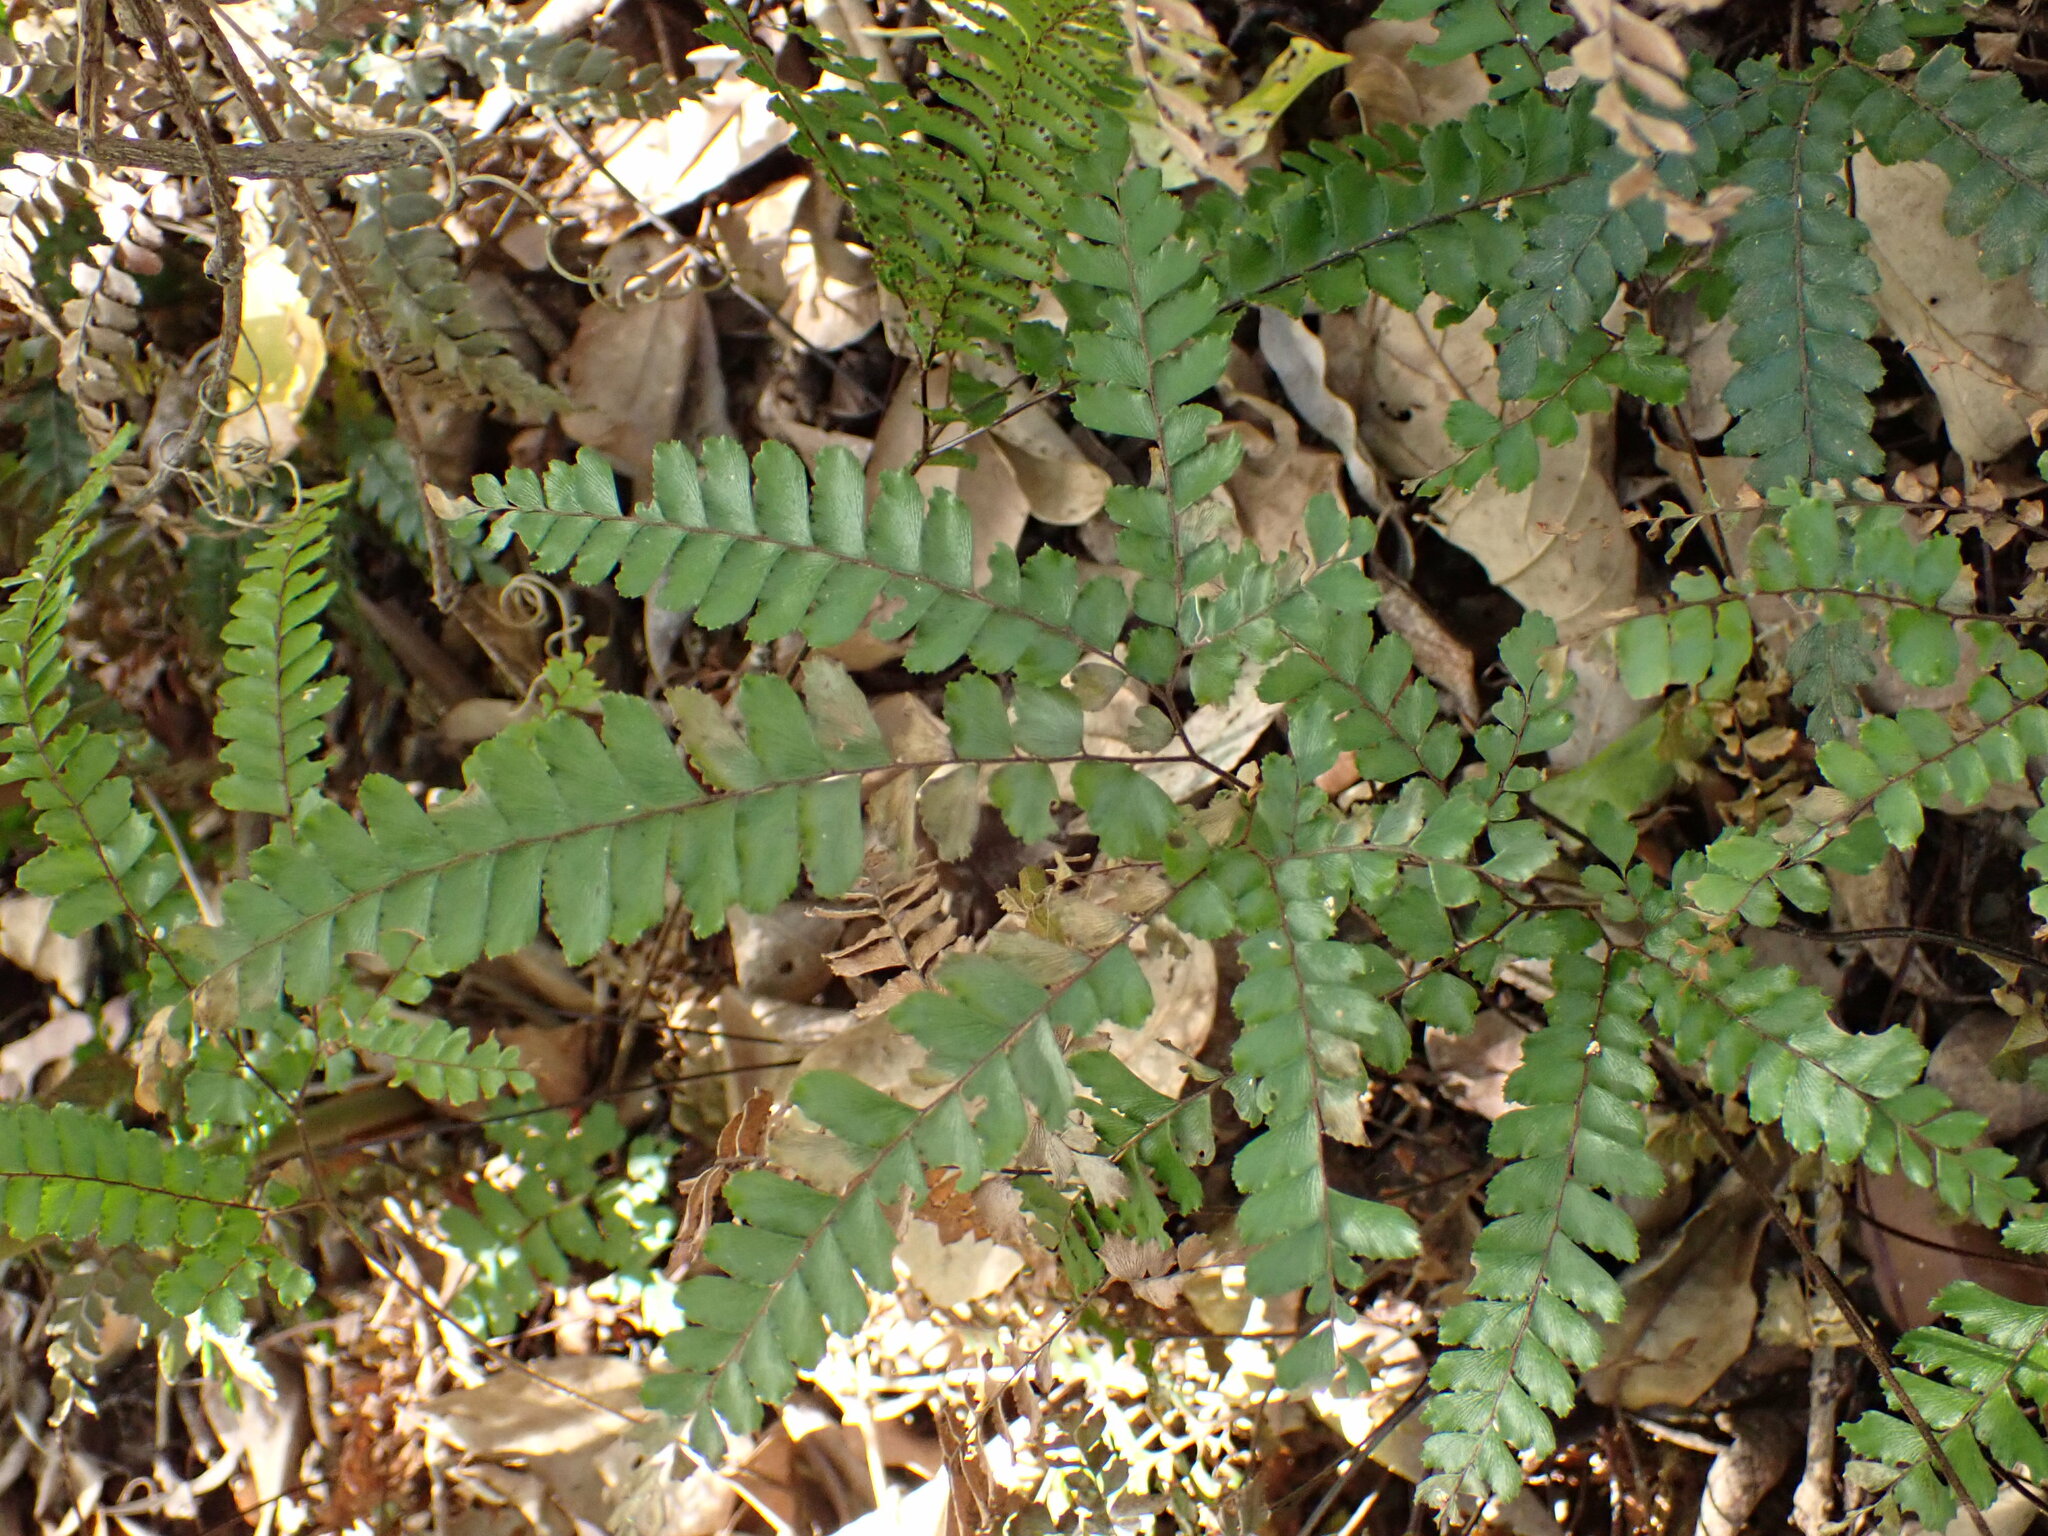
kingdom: Plantae
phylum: Tracheophyta
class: Polypodiopsida
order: Polypodiales
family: Pteridaceae
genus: Adiantum
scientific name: Adiantum hispidulum
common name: Rough maidenhair
